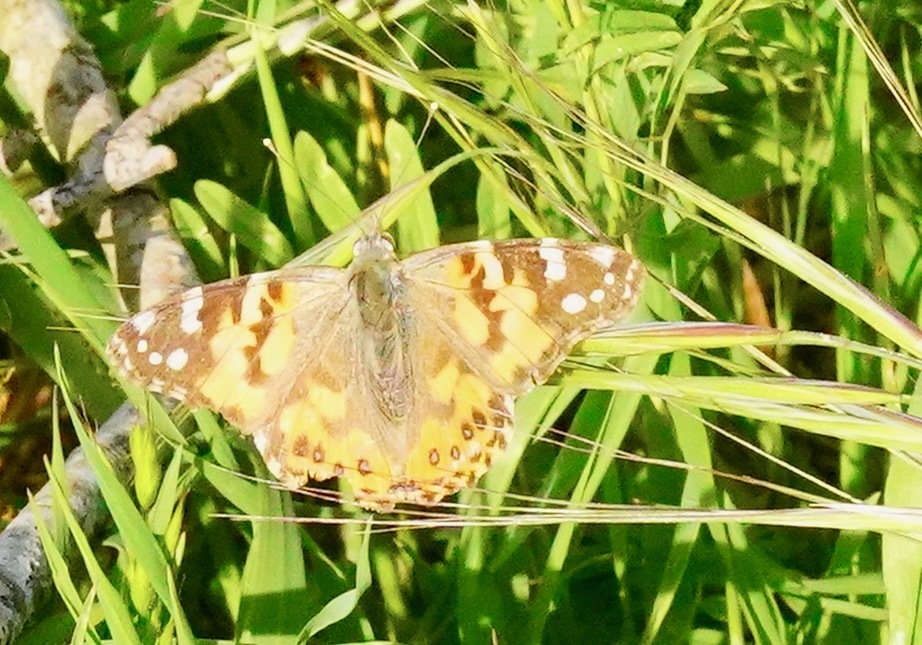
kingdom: Animalia
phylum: Arthropoda
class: Insecta
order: Lepidoptera
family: Nymphalidae
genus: Vanessa
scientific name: Vanessa cardui
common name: Painted lady
